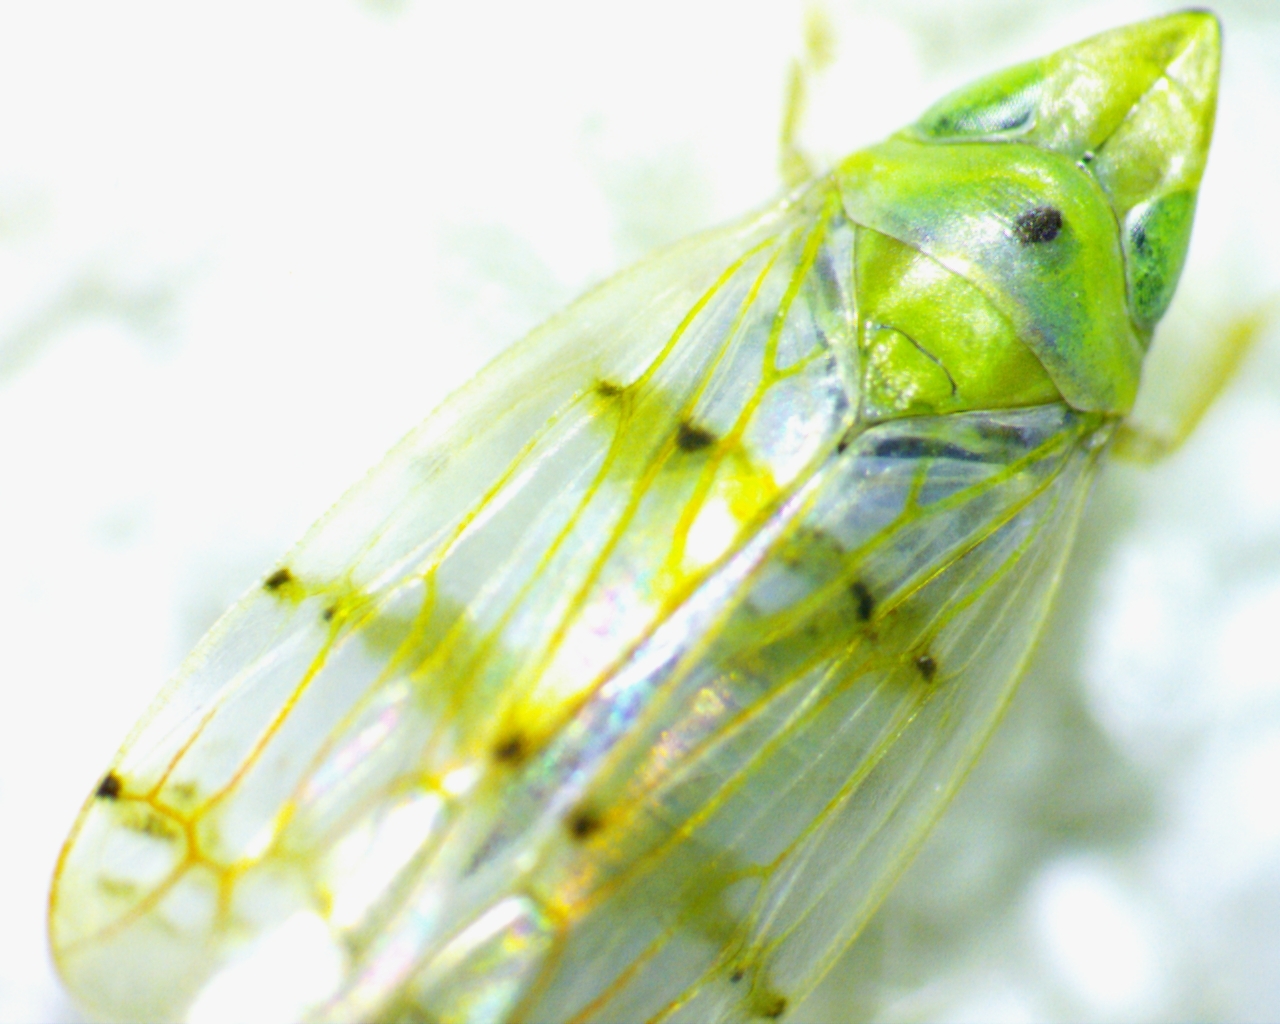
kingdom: Animalia
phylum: Arthropoda
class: Insecta
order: Hemiptera
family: Cicadellidae
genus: Japananus
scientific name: Japananus hyalinus
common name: The japanese maple leafhopper
